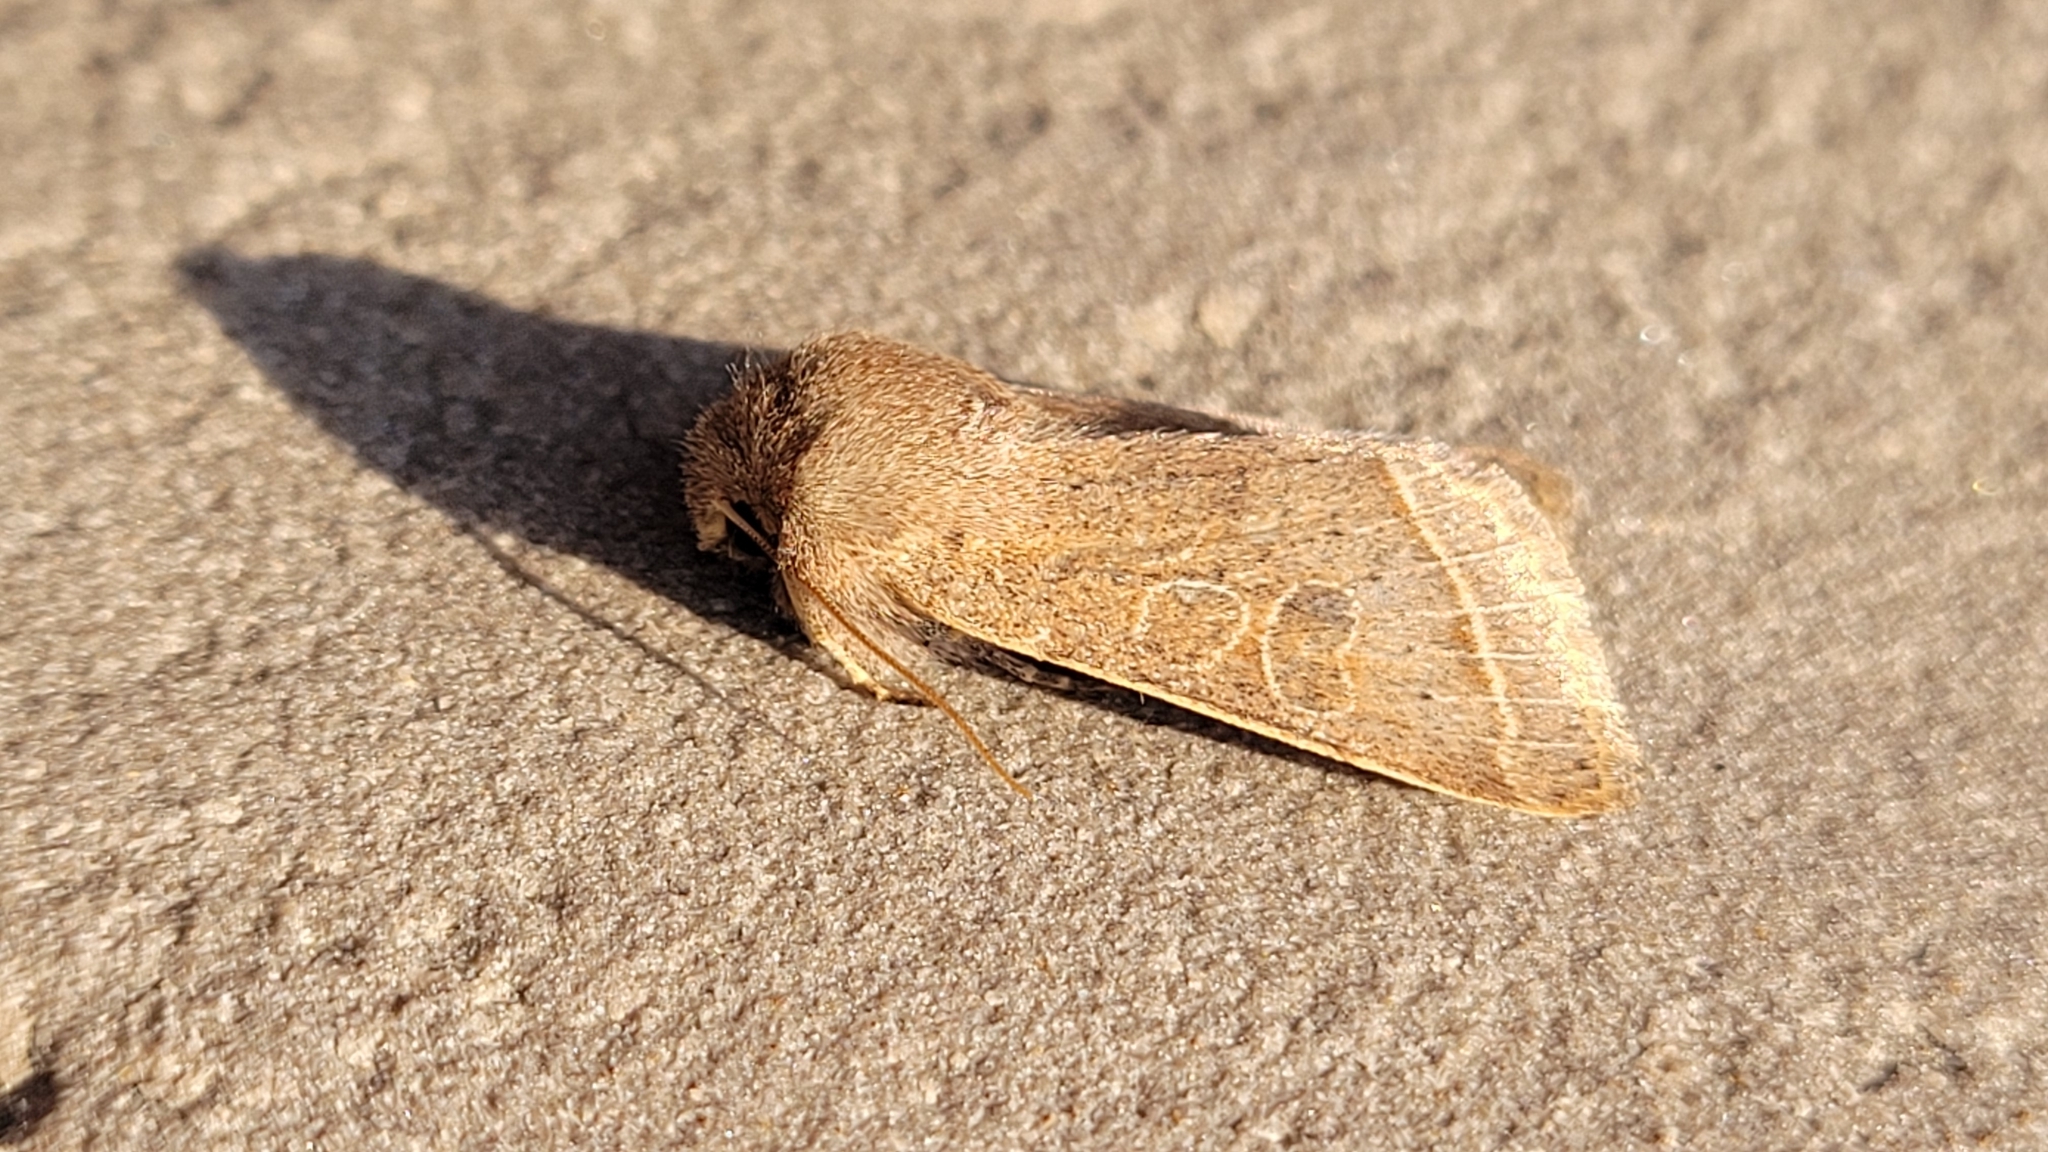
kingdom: Animalia
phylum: Arthropoda
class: Insecta
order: Lepidoptera
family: Noctuidae
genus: Orthosia
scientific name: Orthosia cerasi
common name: Common quaker
